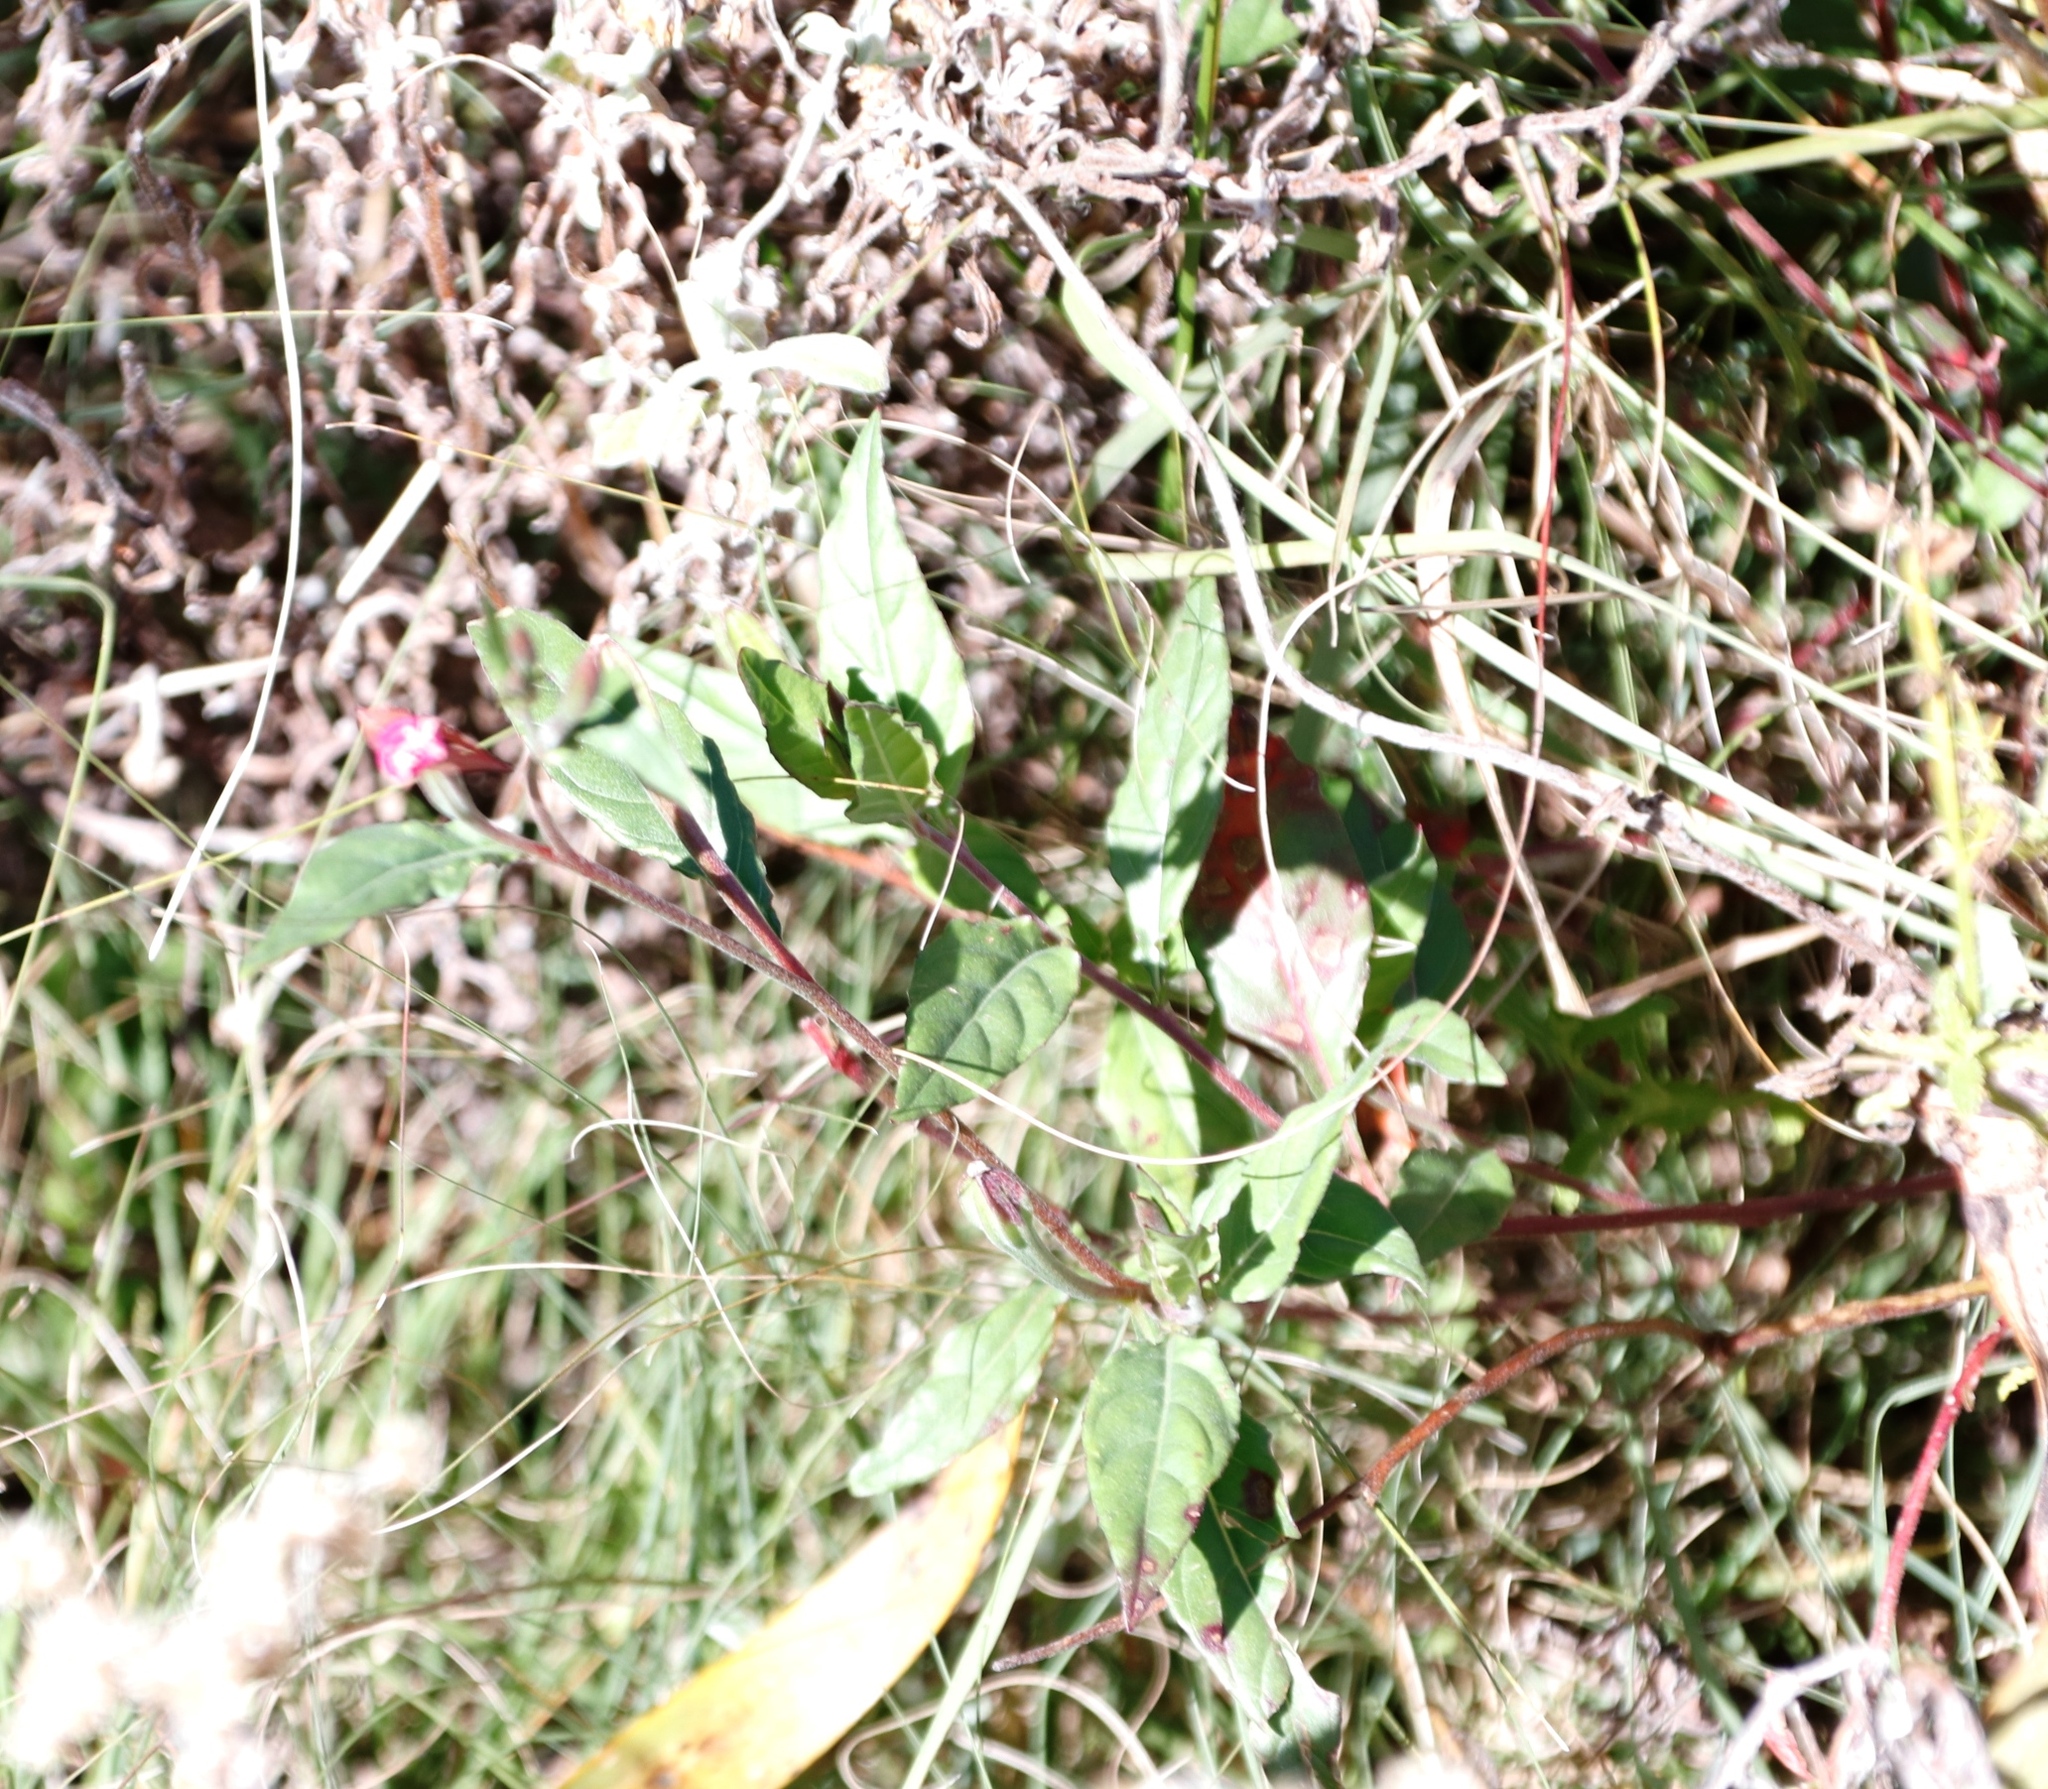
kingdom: Plantae
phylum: Tracheophyta
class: Magnoliopsida
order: Myrtales
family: Onagraceae
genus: Oenothera
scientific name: Oenothera rosea
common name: Rosy evening-primrose
